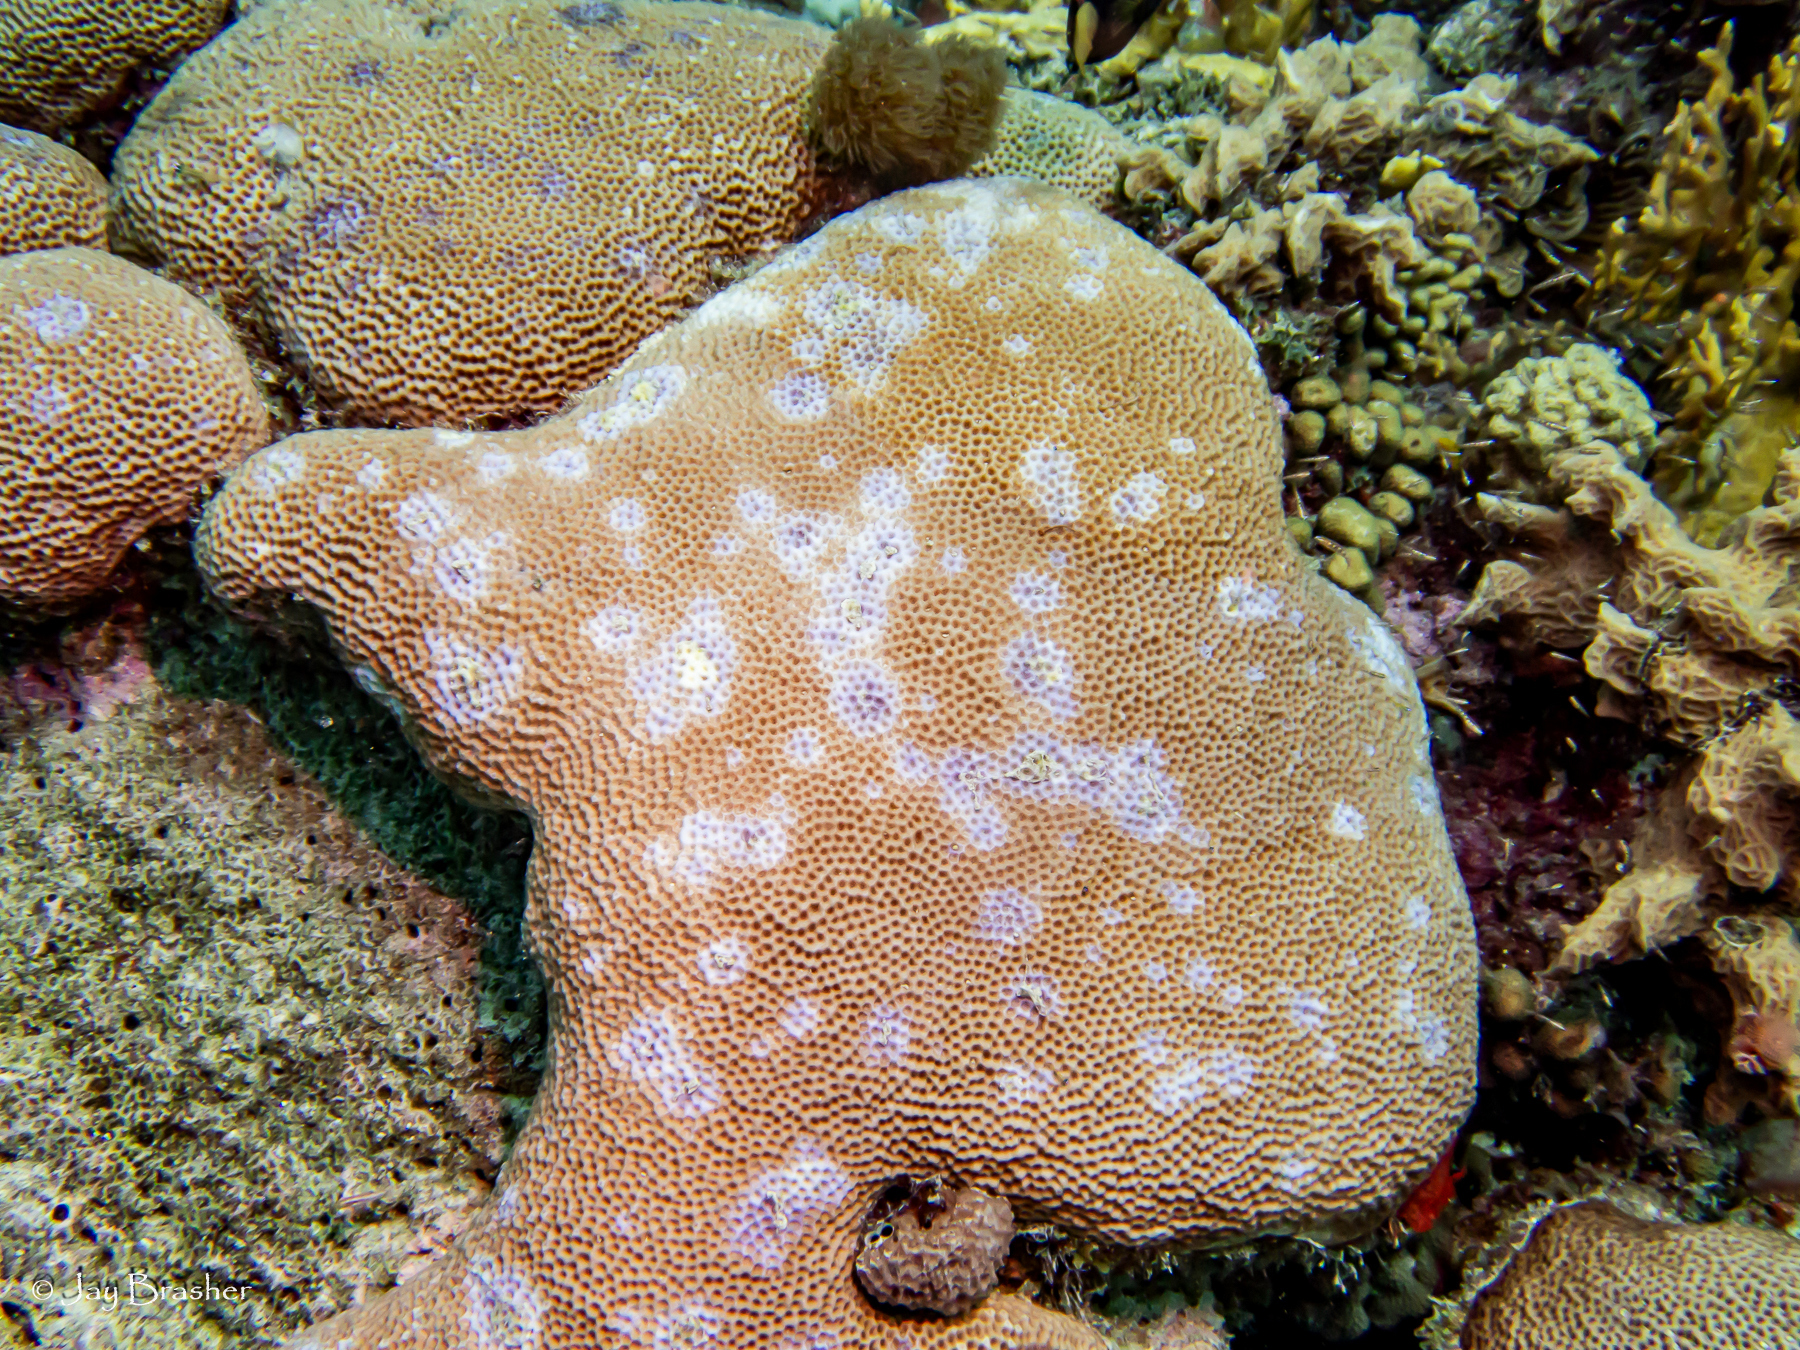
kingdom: Animalia
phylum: Cnidaria
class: Anthozoa
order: Scleractinia
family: Rhizangiidae
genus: Siderastrea
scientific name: Siderastrea siderea
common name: Massive starlet coral
